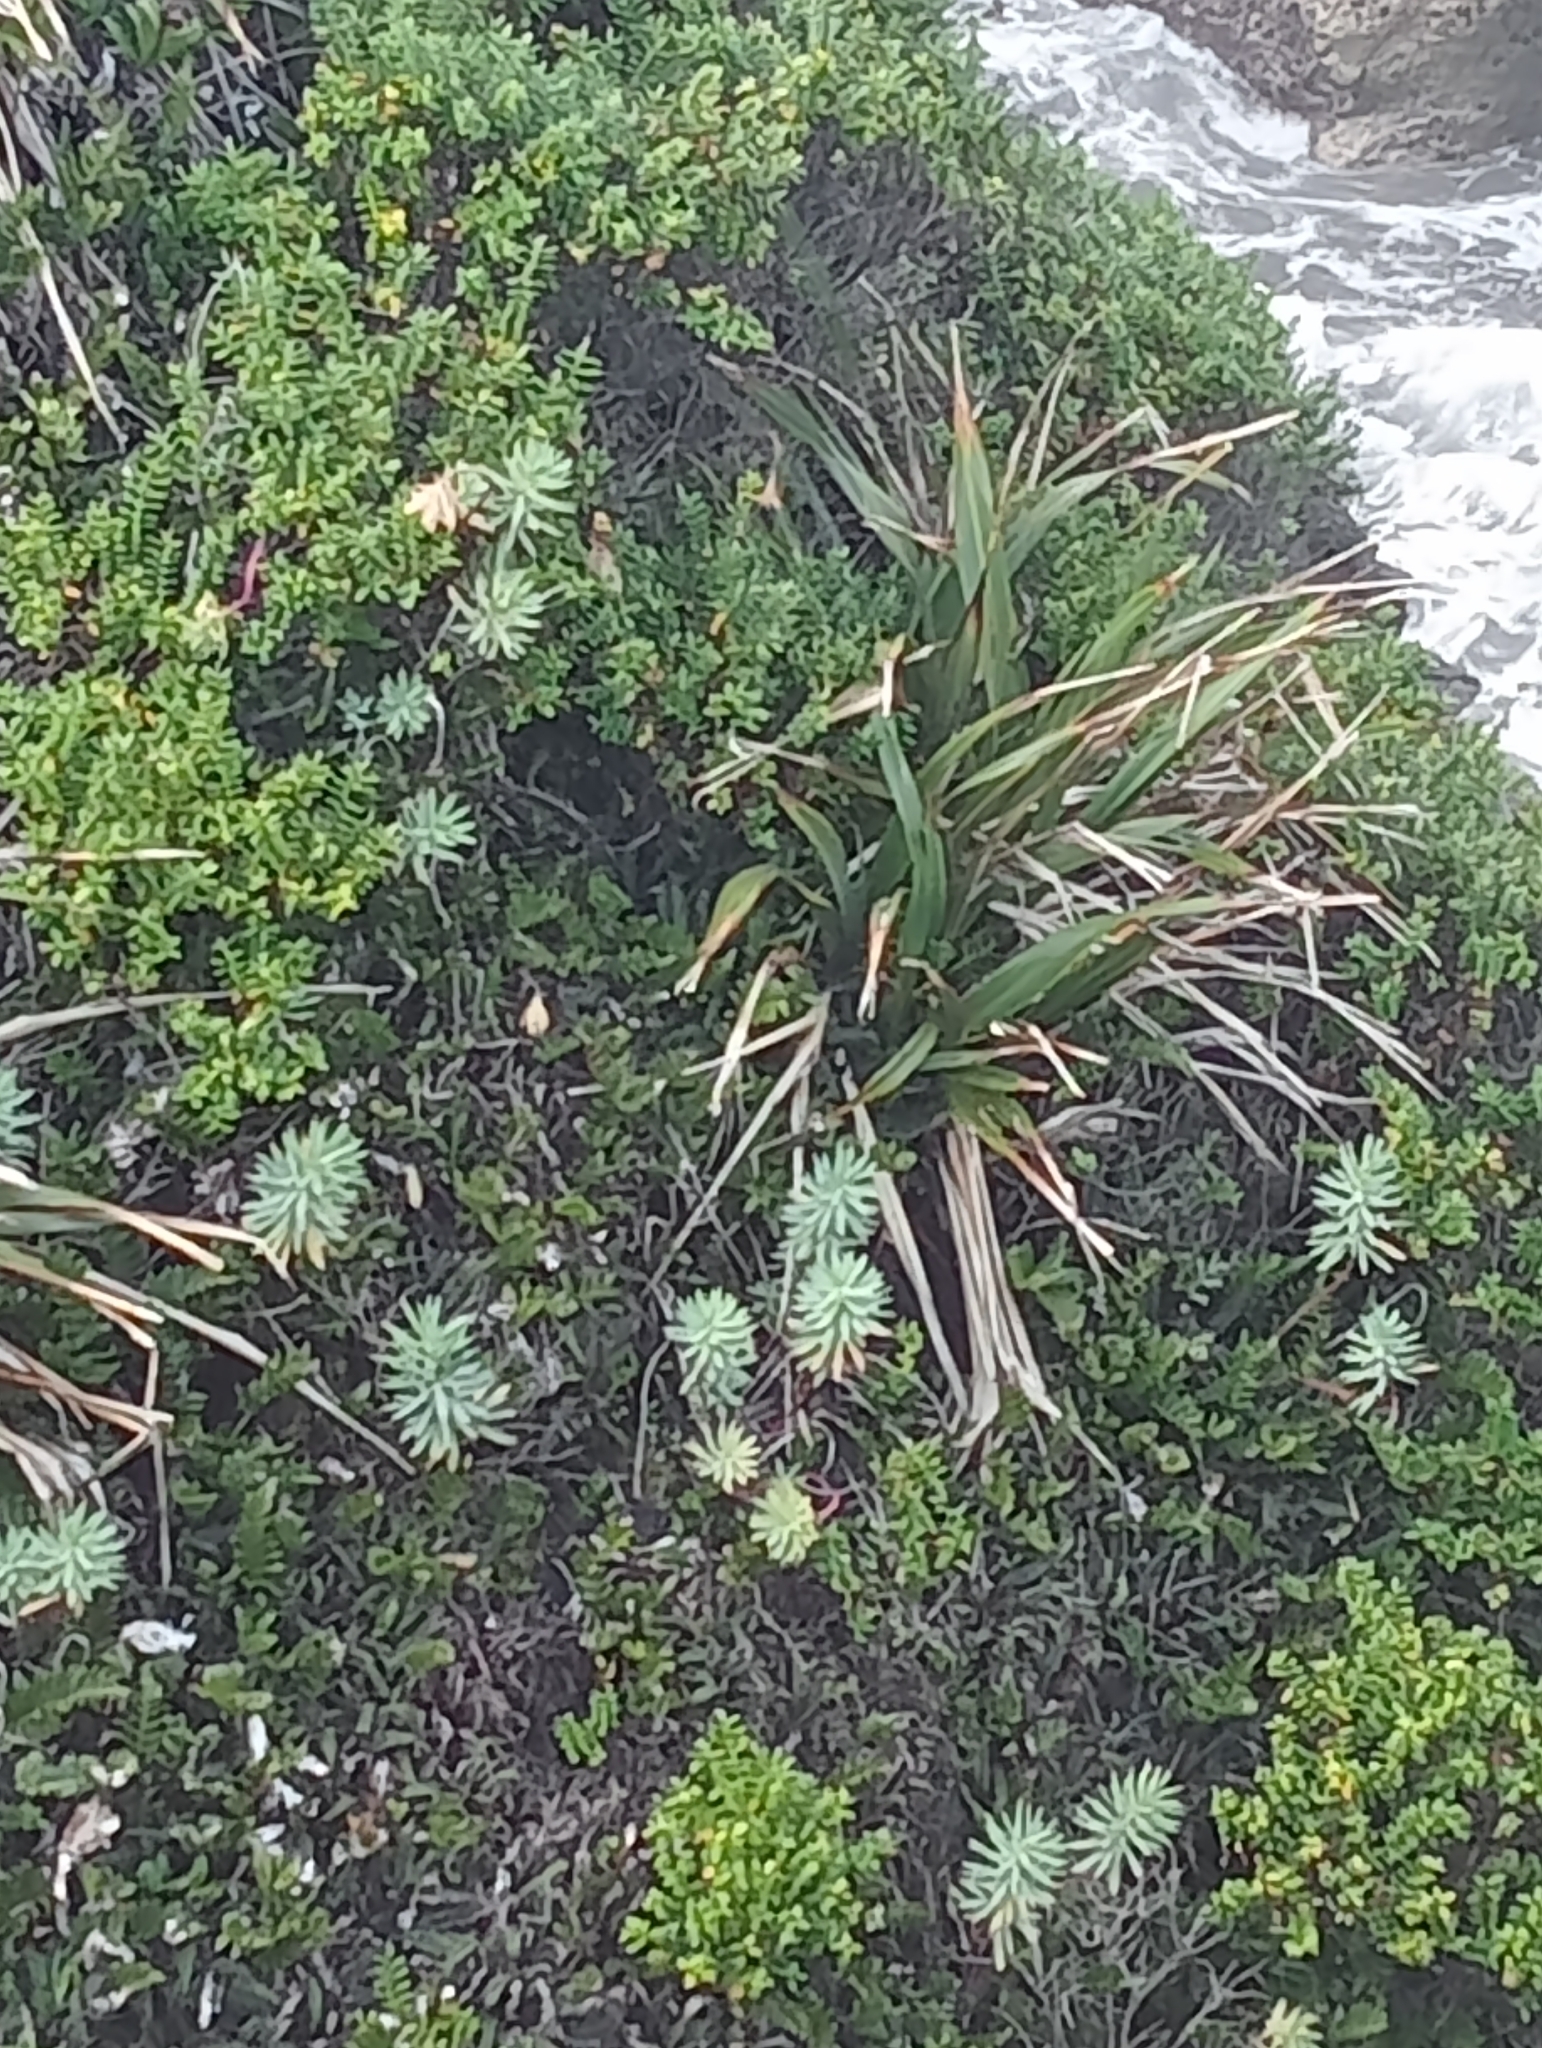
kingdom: Plantae
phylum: Tracheophyta
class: Magnoliopsida
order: Malpighiales
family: Euphorbiaceae
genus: Euphorbia
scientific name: Euphorbia glauca
